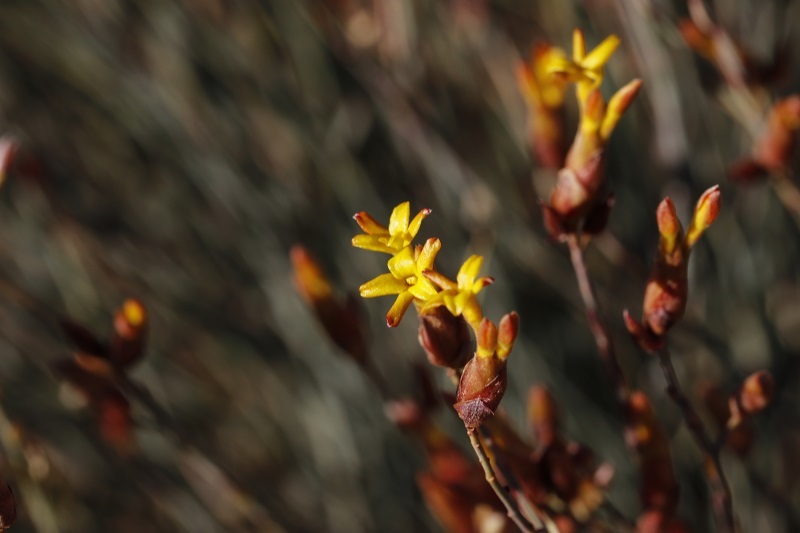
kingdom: Plantae
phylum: Tracheophyta
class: Magnoliopsida
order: Malvales
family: Thymelaeaceae
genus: Gnidia
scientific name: Gnidia polycephala
